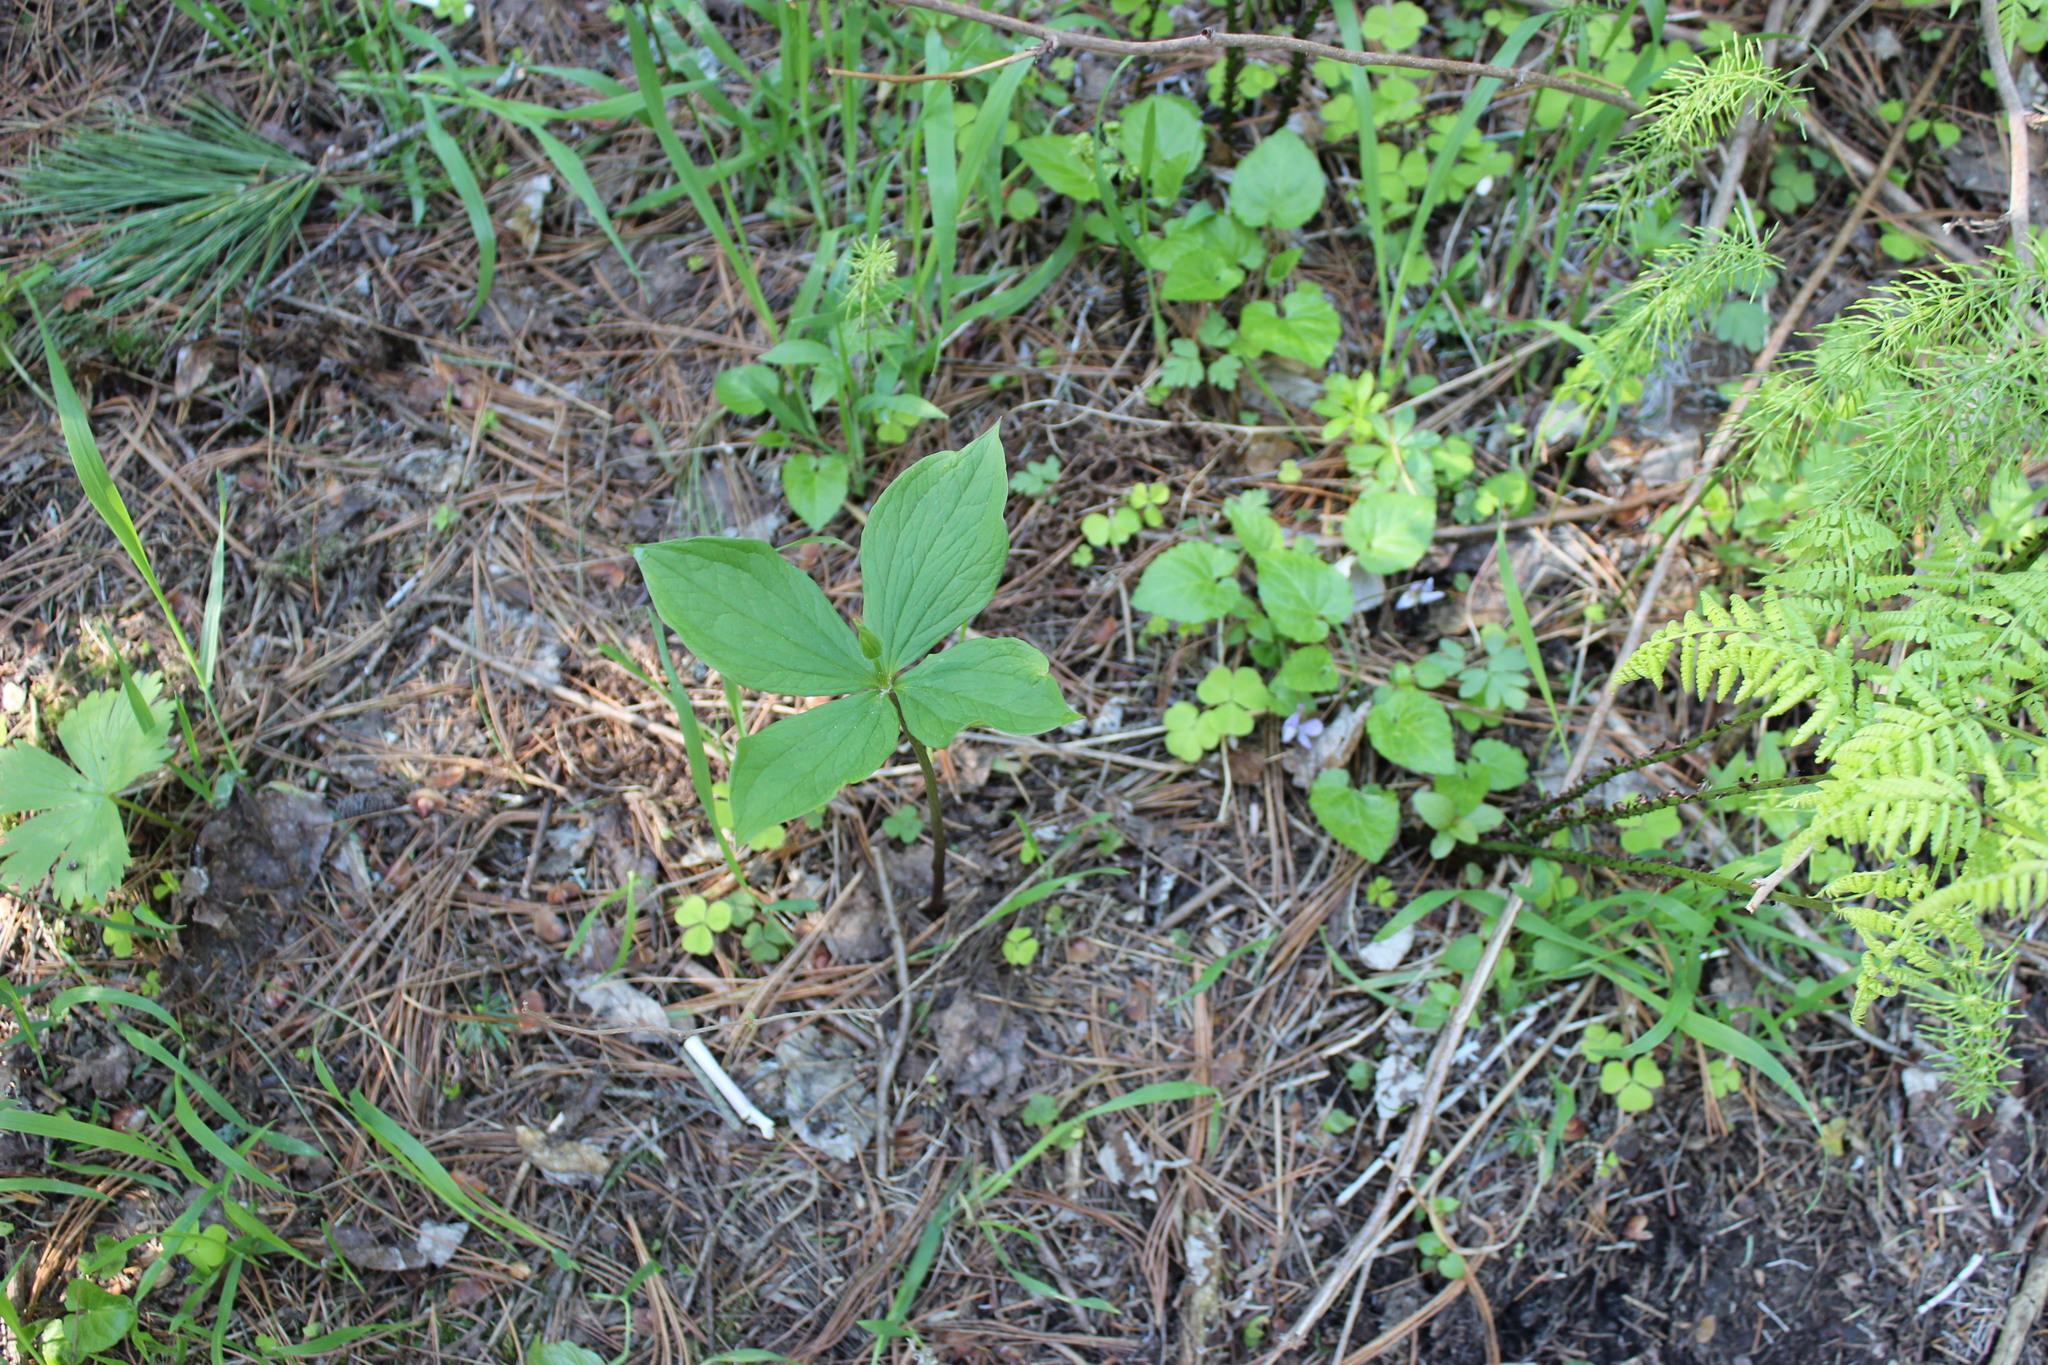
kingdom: Plantae
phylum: Tracheophyta
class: Liliopsida
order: Liliales
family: Melanthiaceae
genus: Paris
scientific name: Paris quadrifolia
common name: Herb-paris
